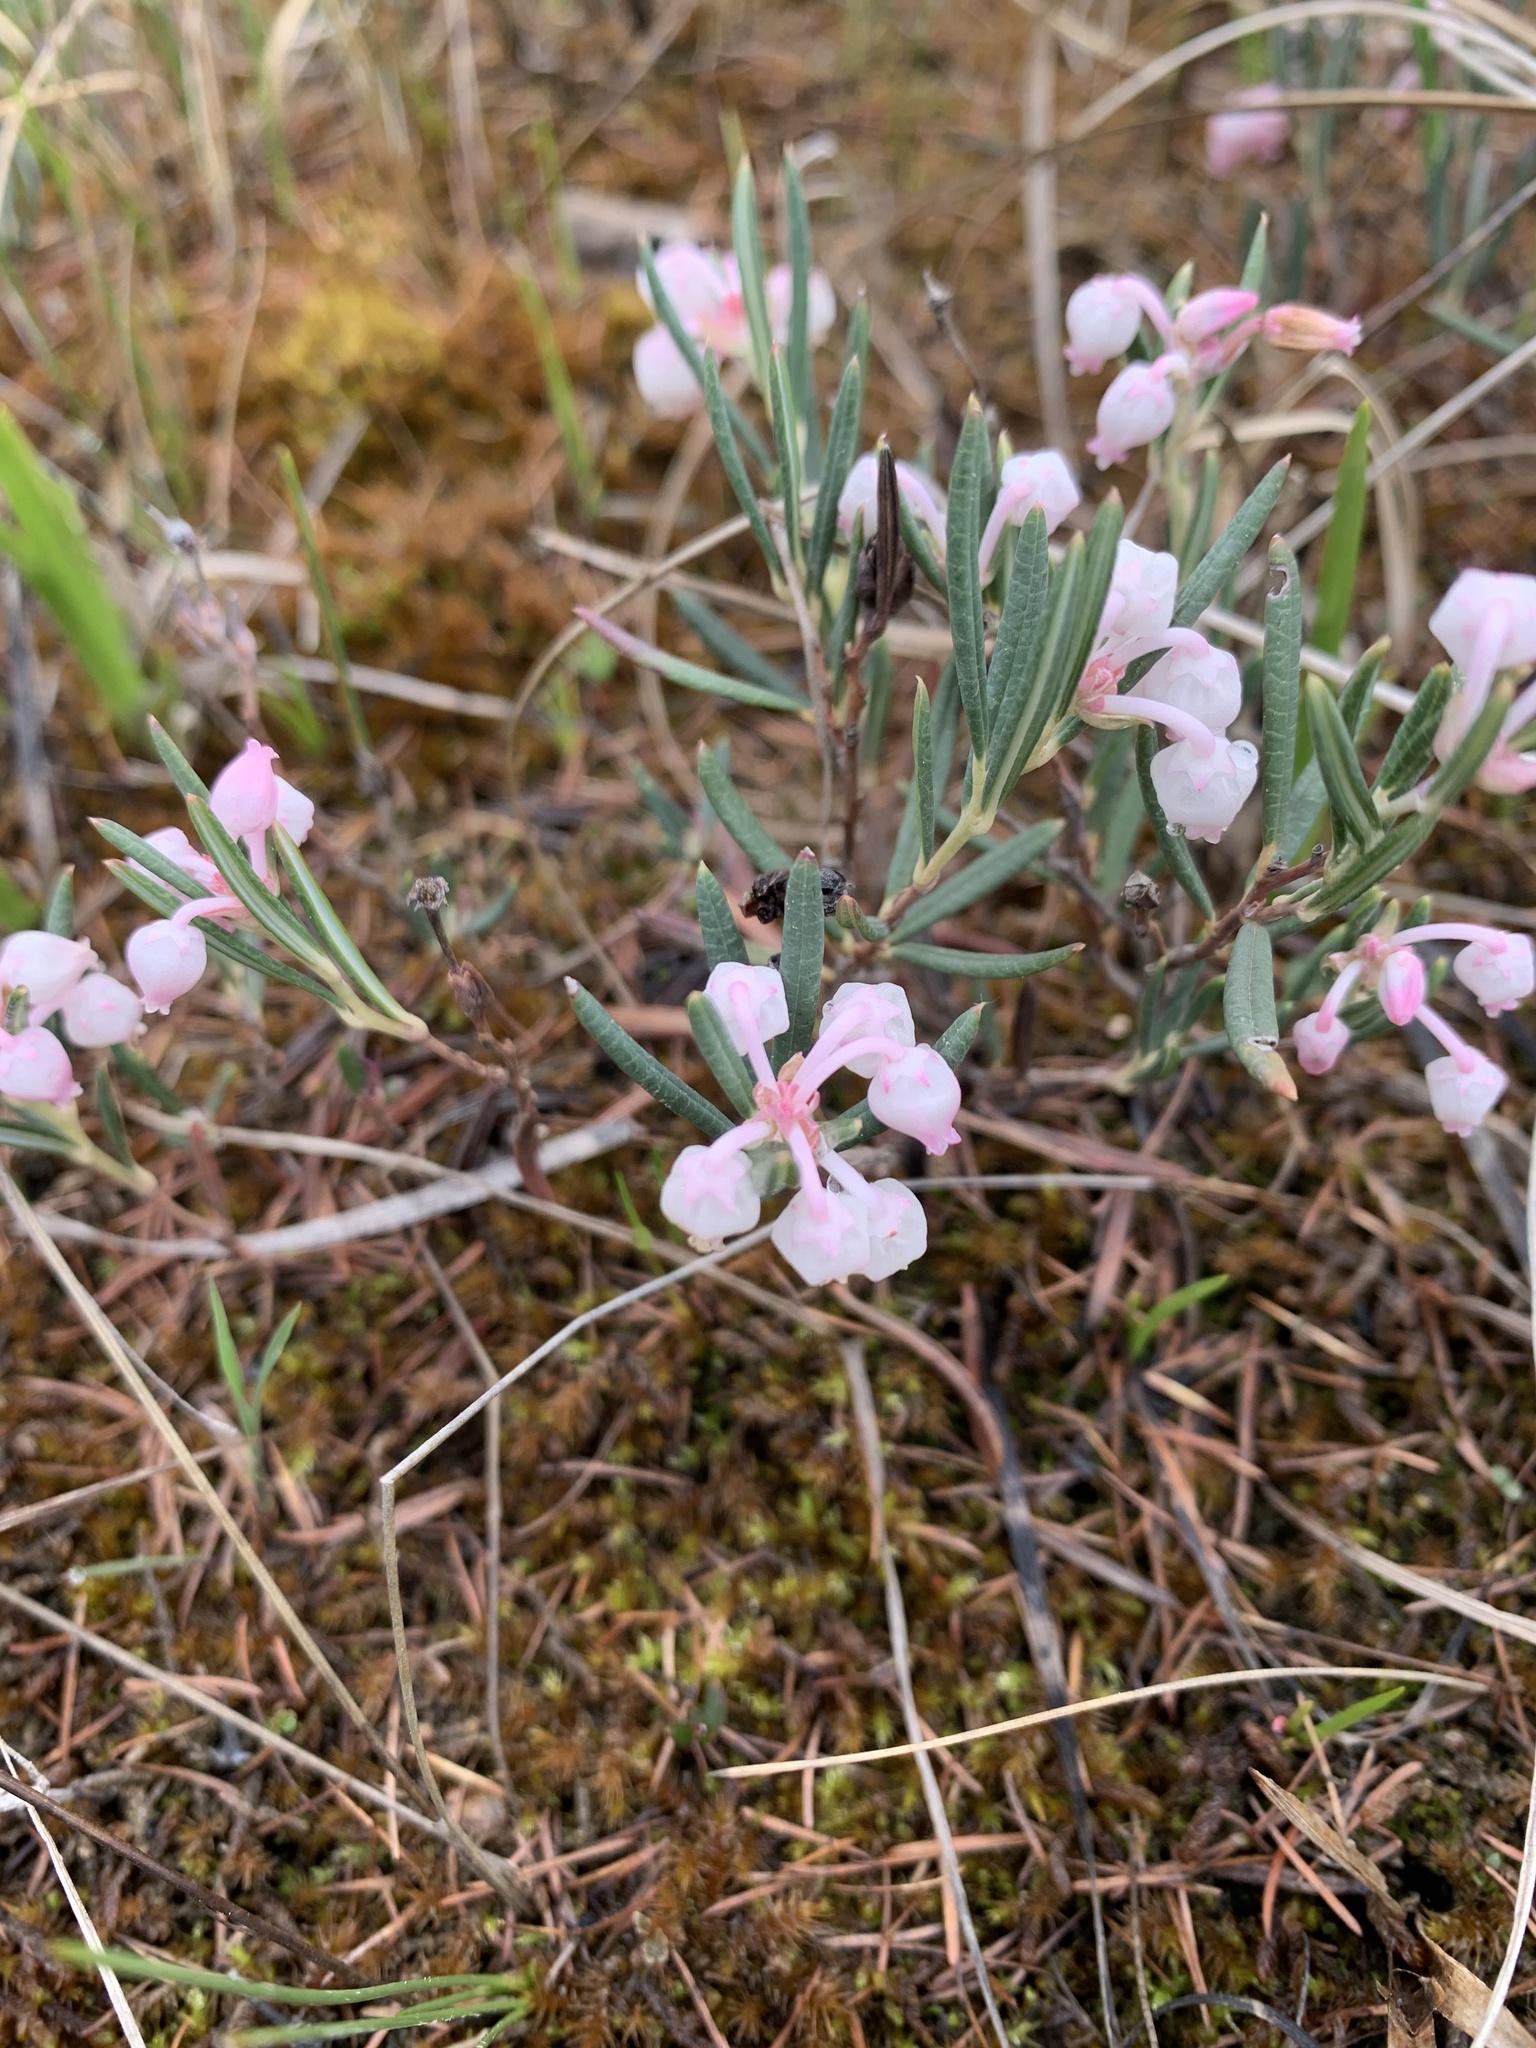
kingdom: Plantae
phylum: Tracheophyta
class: Magnoliopsida
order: Ericales
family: Ericaceae
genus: Andromeda
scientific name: Andromeda polifolia
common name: Bog-rosemary
